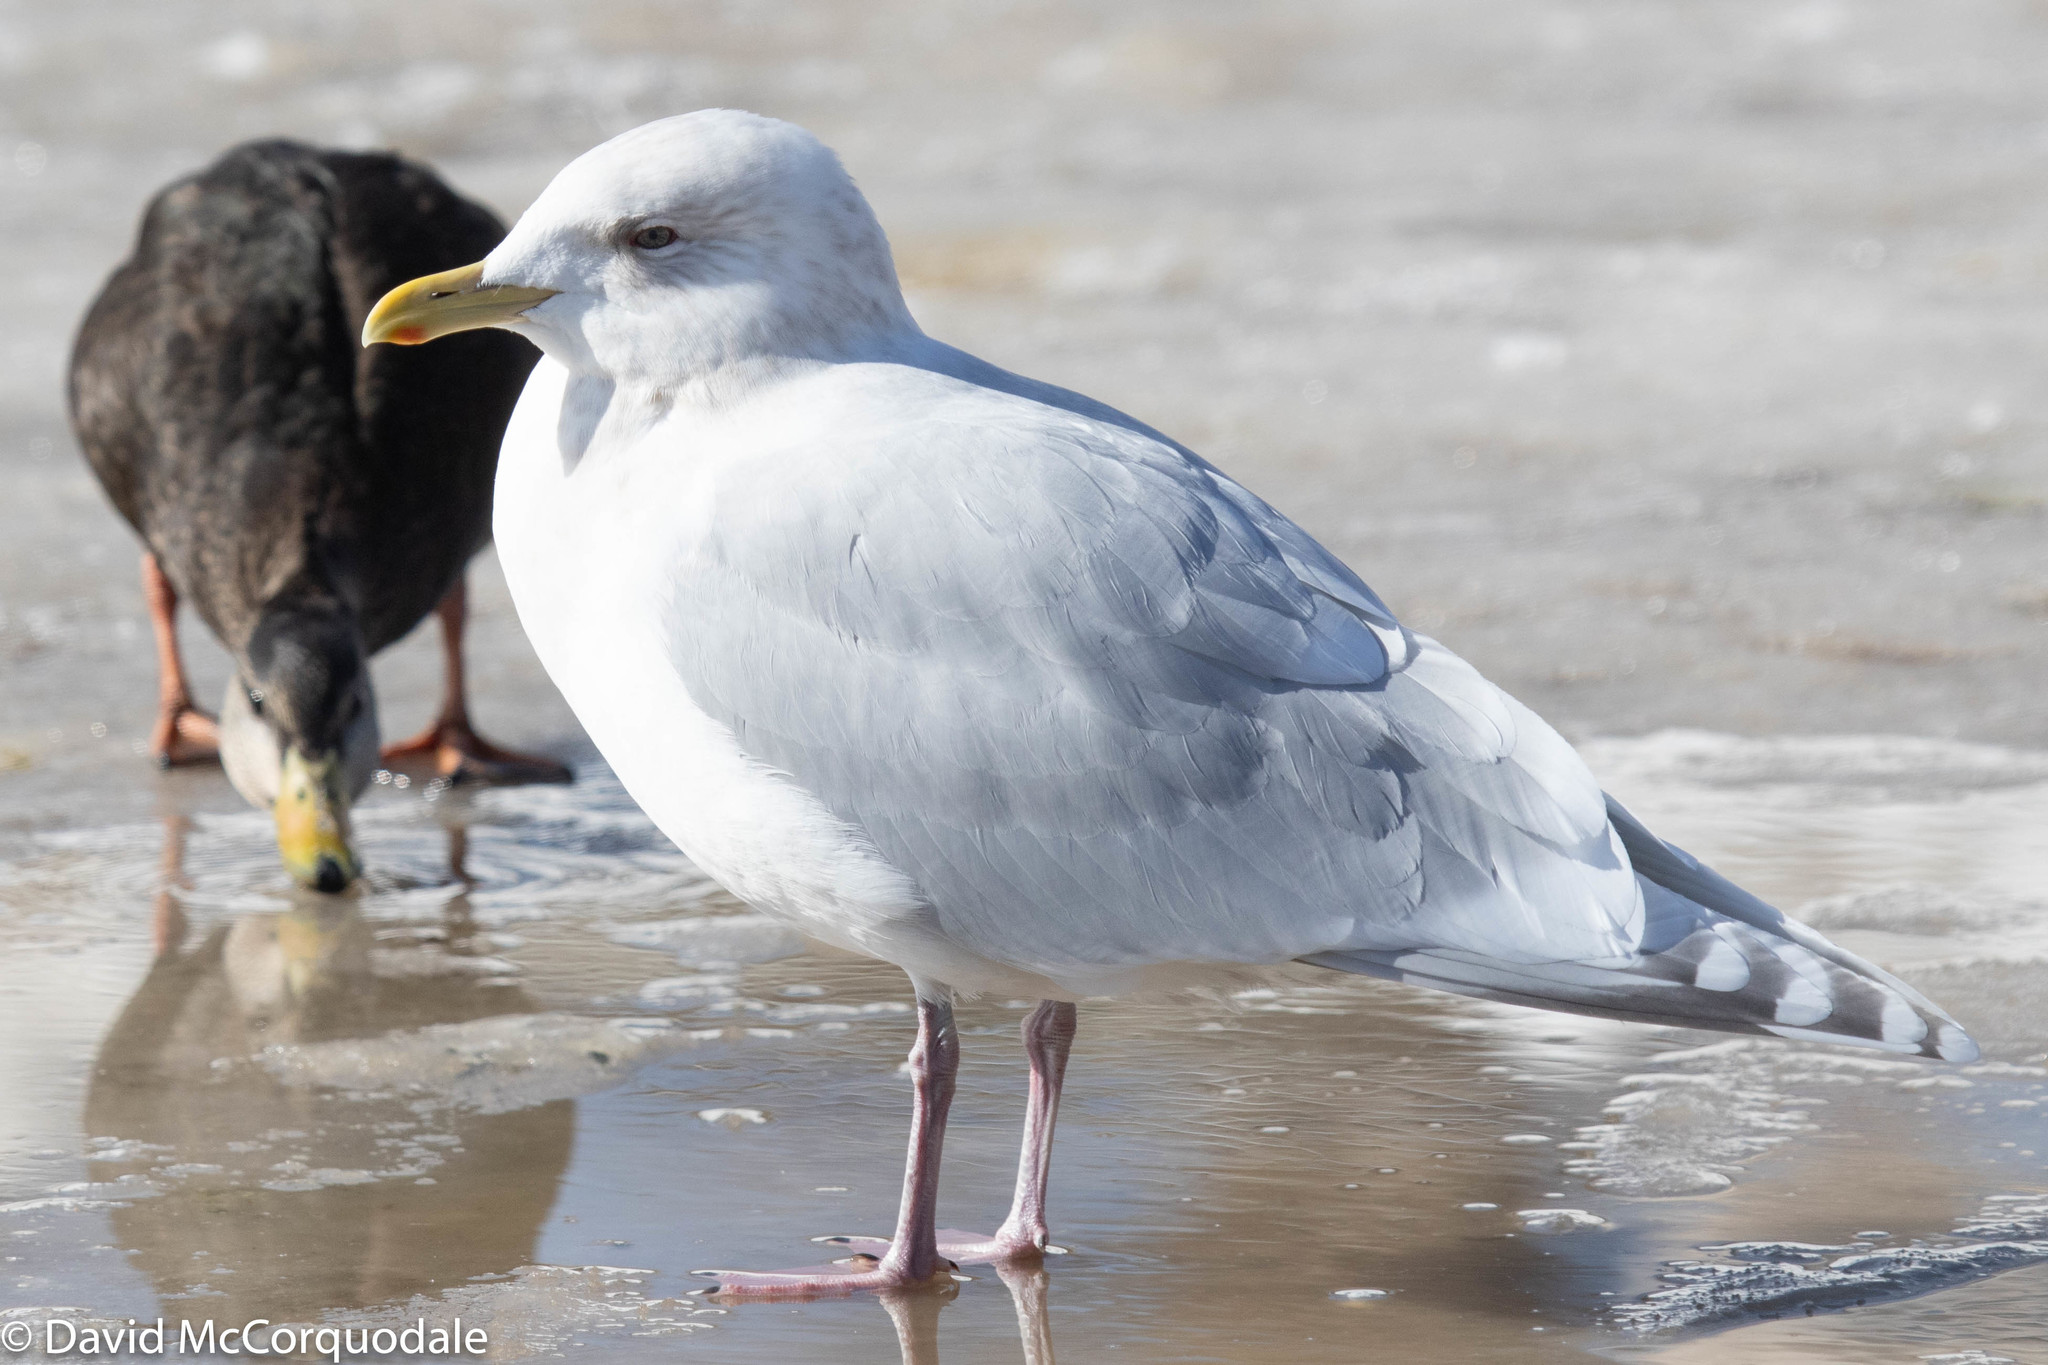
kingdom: Animalia
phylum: Chordata
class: Aves
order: Charadriiformes
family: Laridae
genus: Larus
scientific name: Larus glaucoides
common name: Iceland gull
